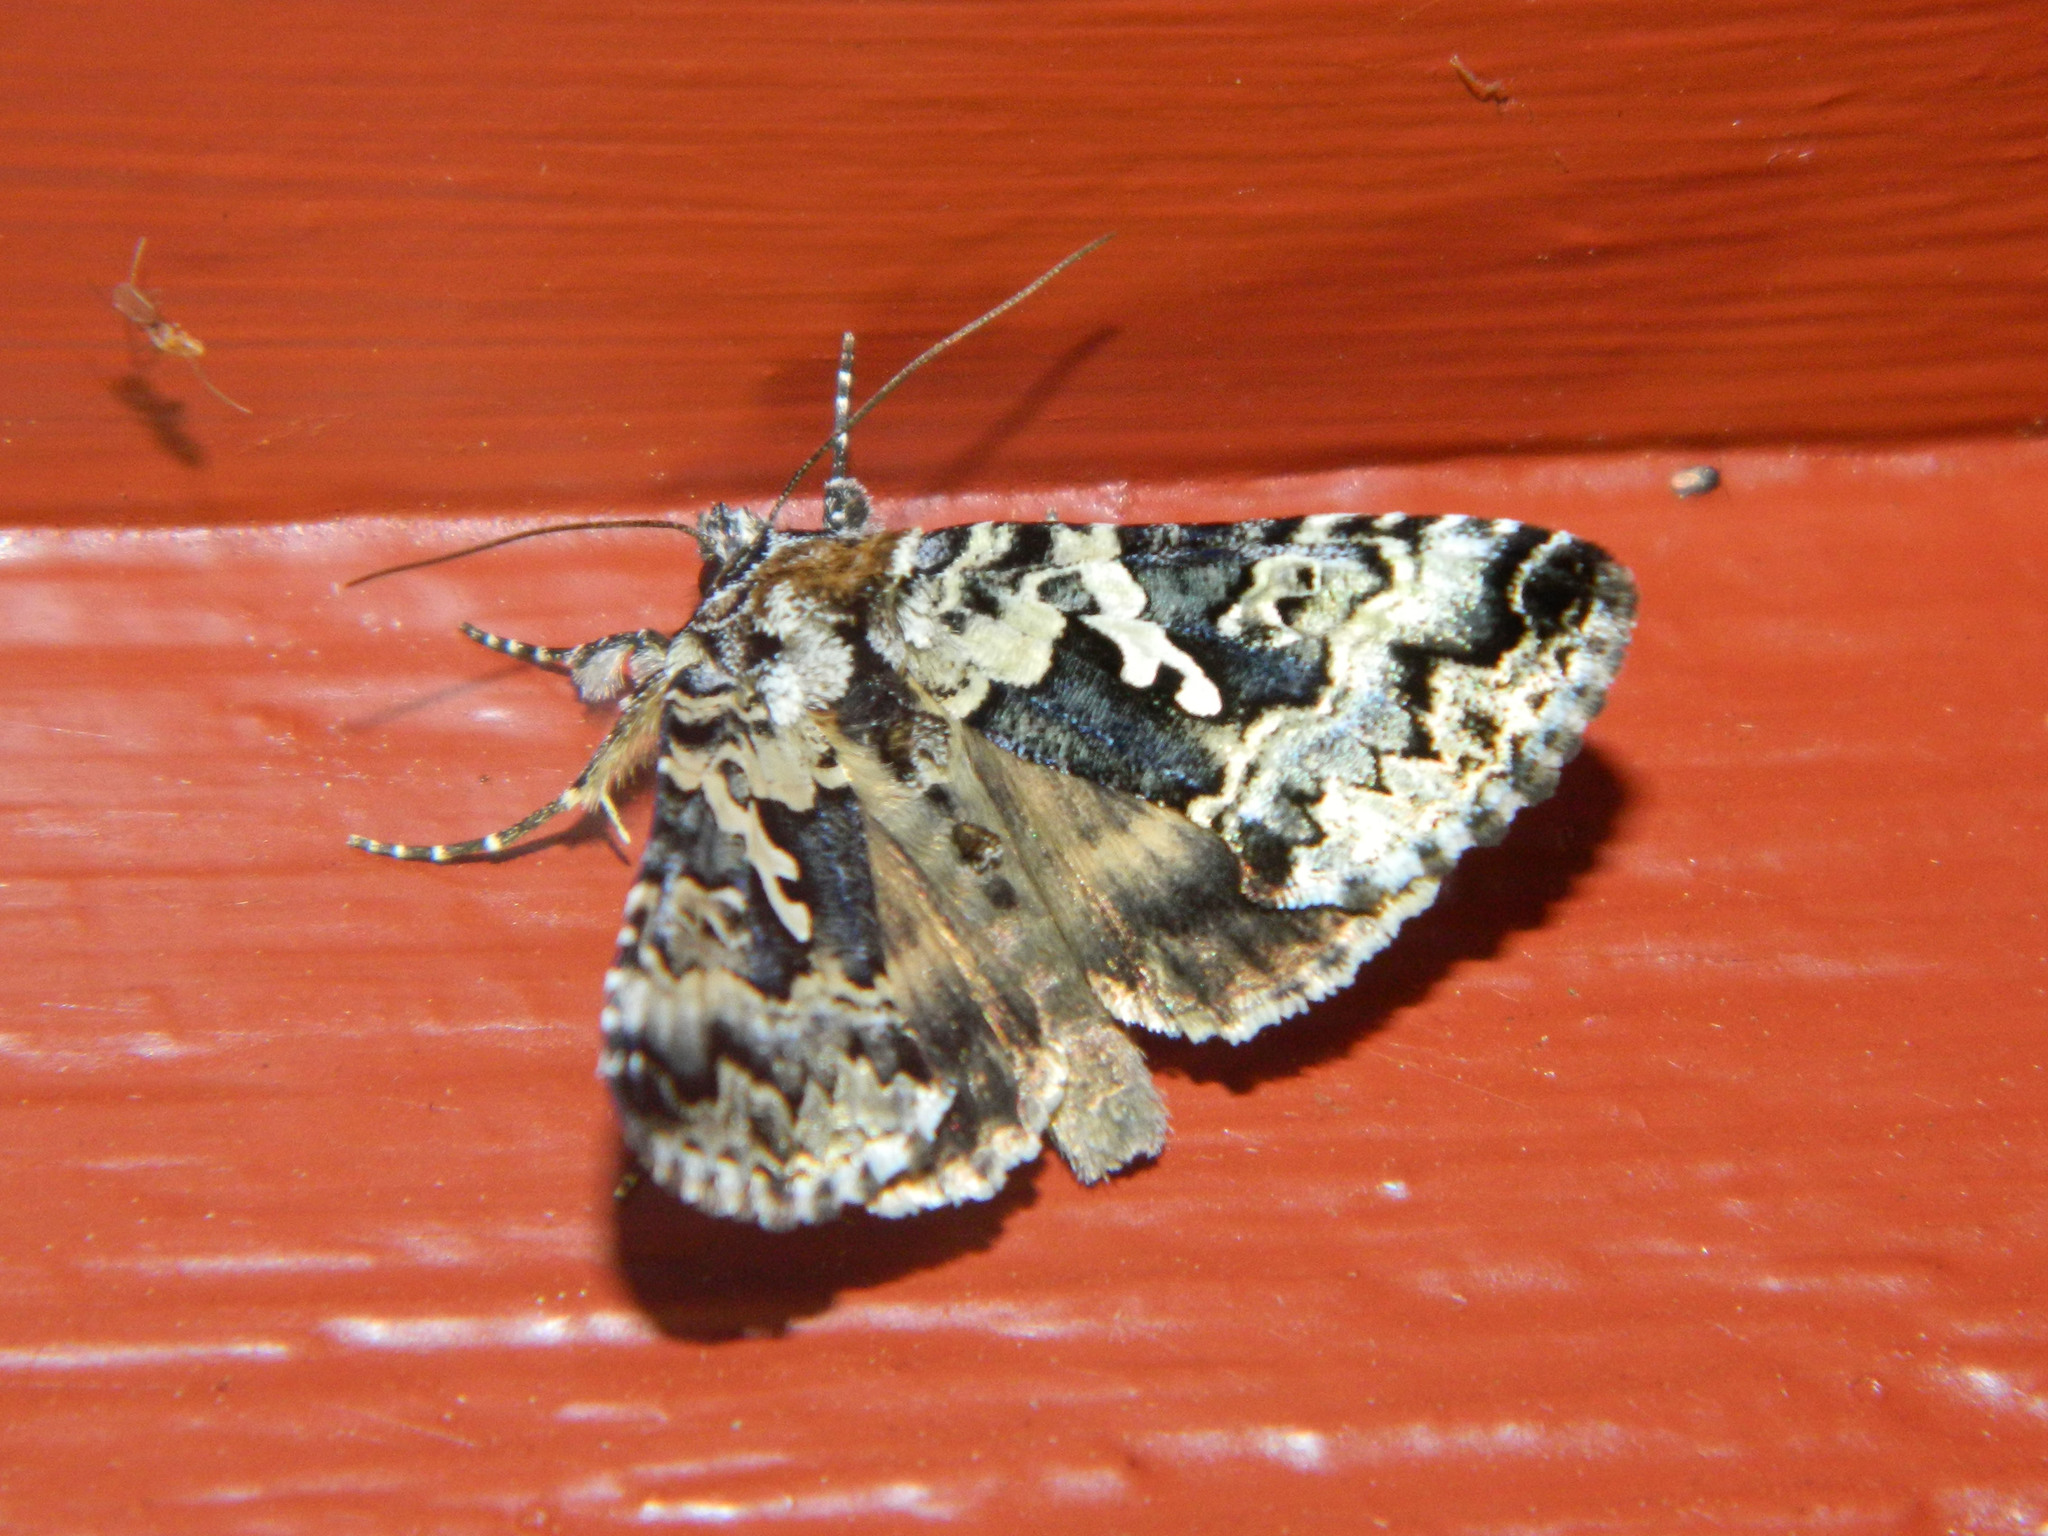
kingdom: Animalia
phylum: Arthropoda
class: Insecta
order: Lepidoptera
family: Noctuidae
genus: Syngrapha
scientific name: Syngrapha rectangula
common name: Angulated cutworm
